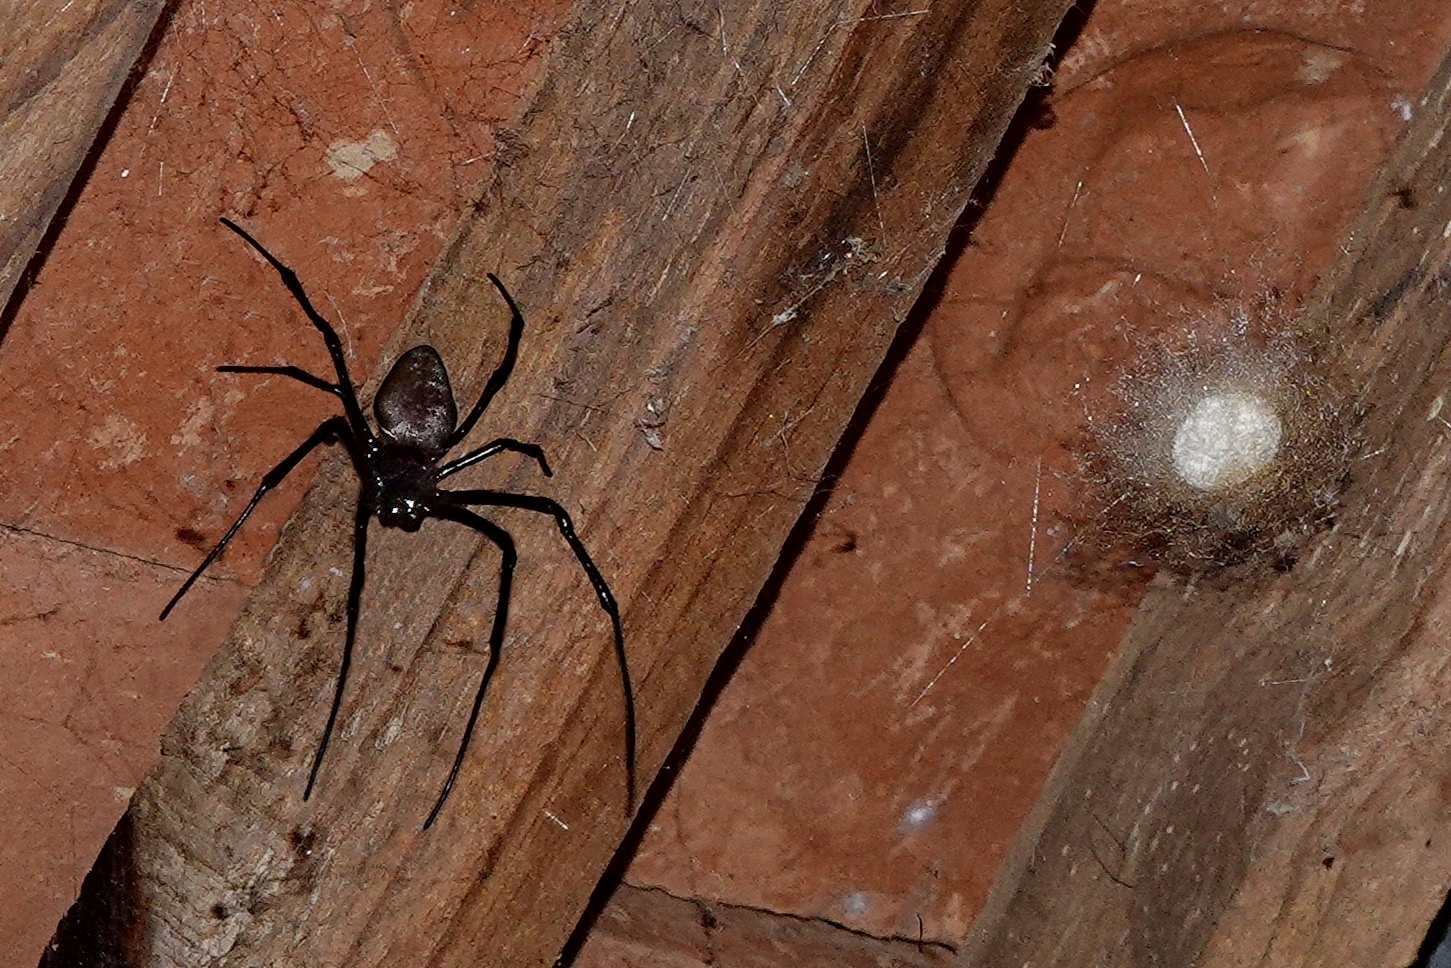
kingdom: Animalia
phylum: Arthropoda
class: Arachnida
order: Araneae
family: Araneidae
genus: Nephilingis
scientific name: Nephilingis livida
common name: Madagascar hermit spider
